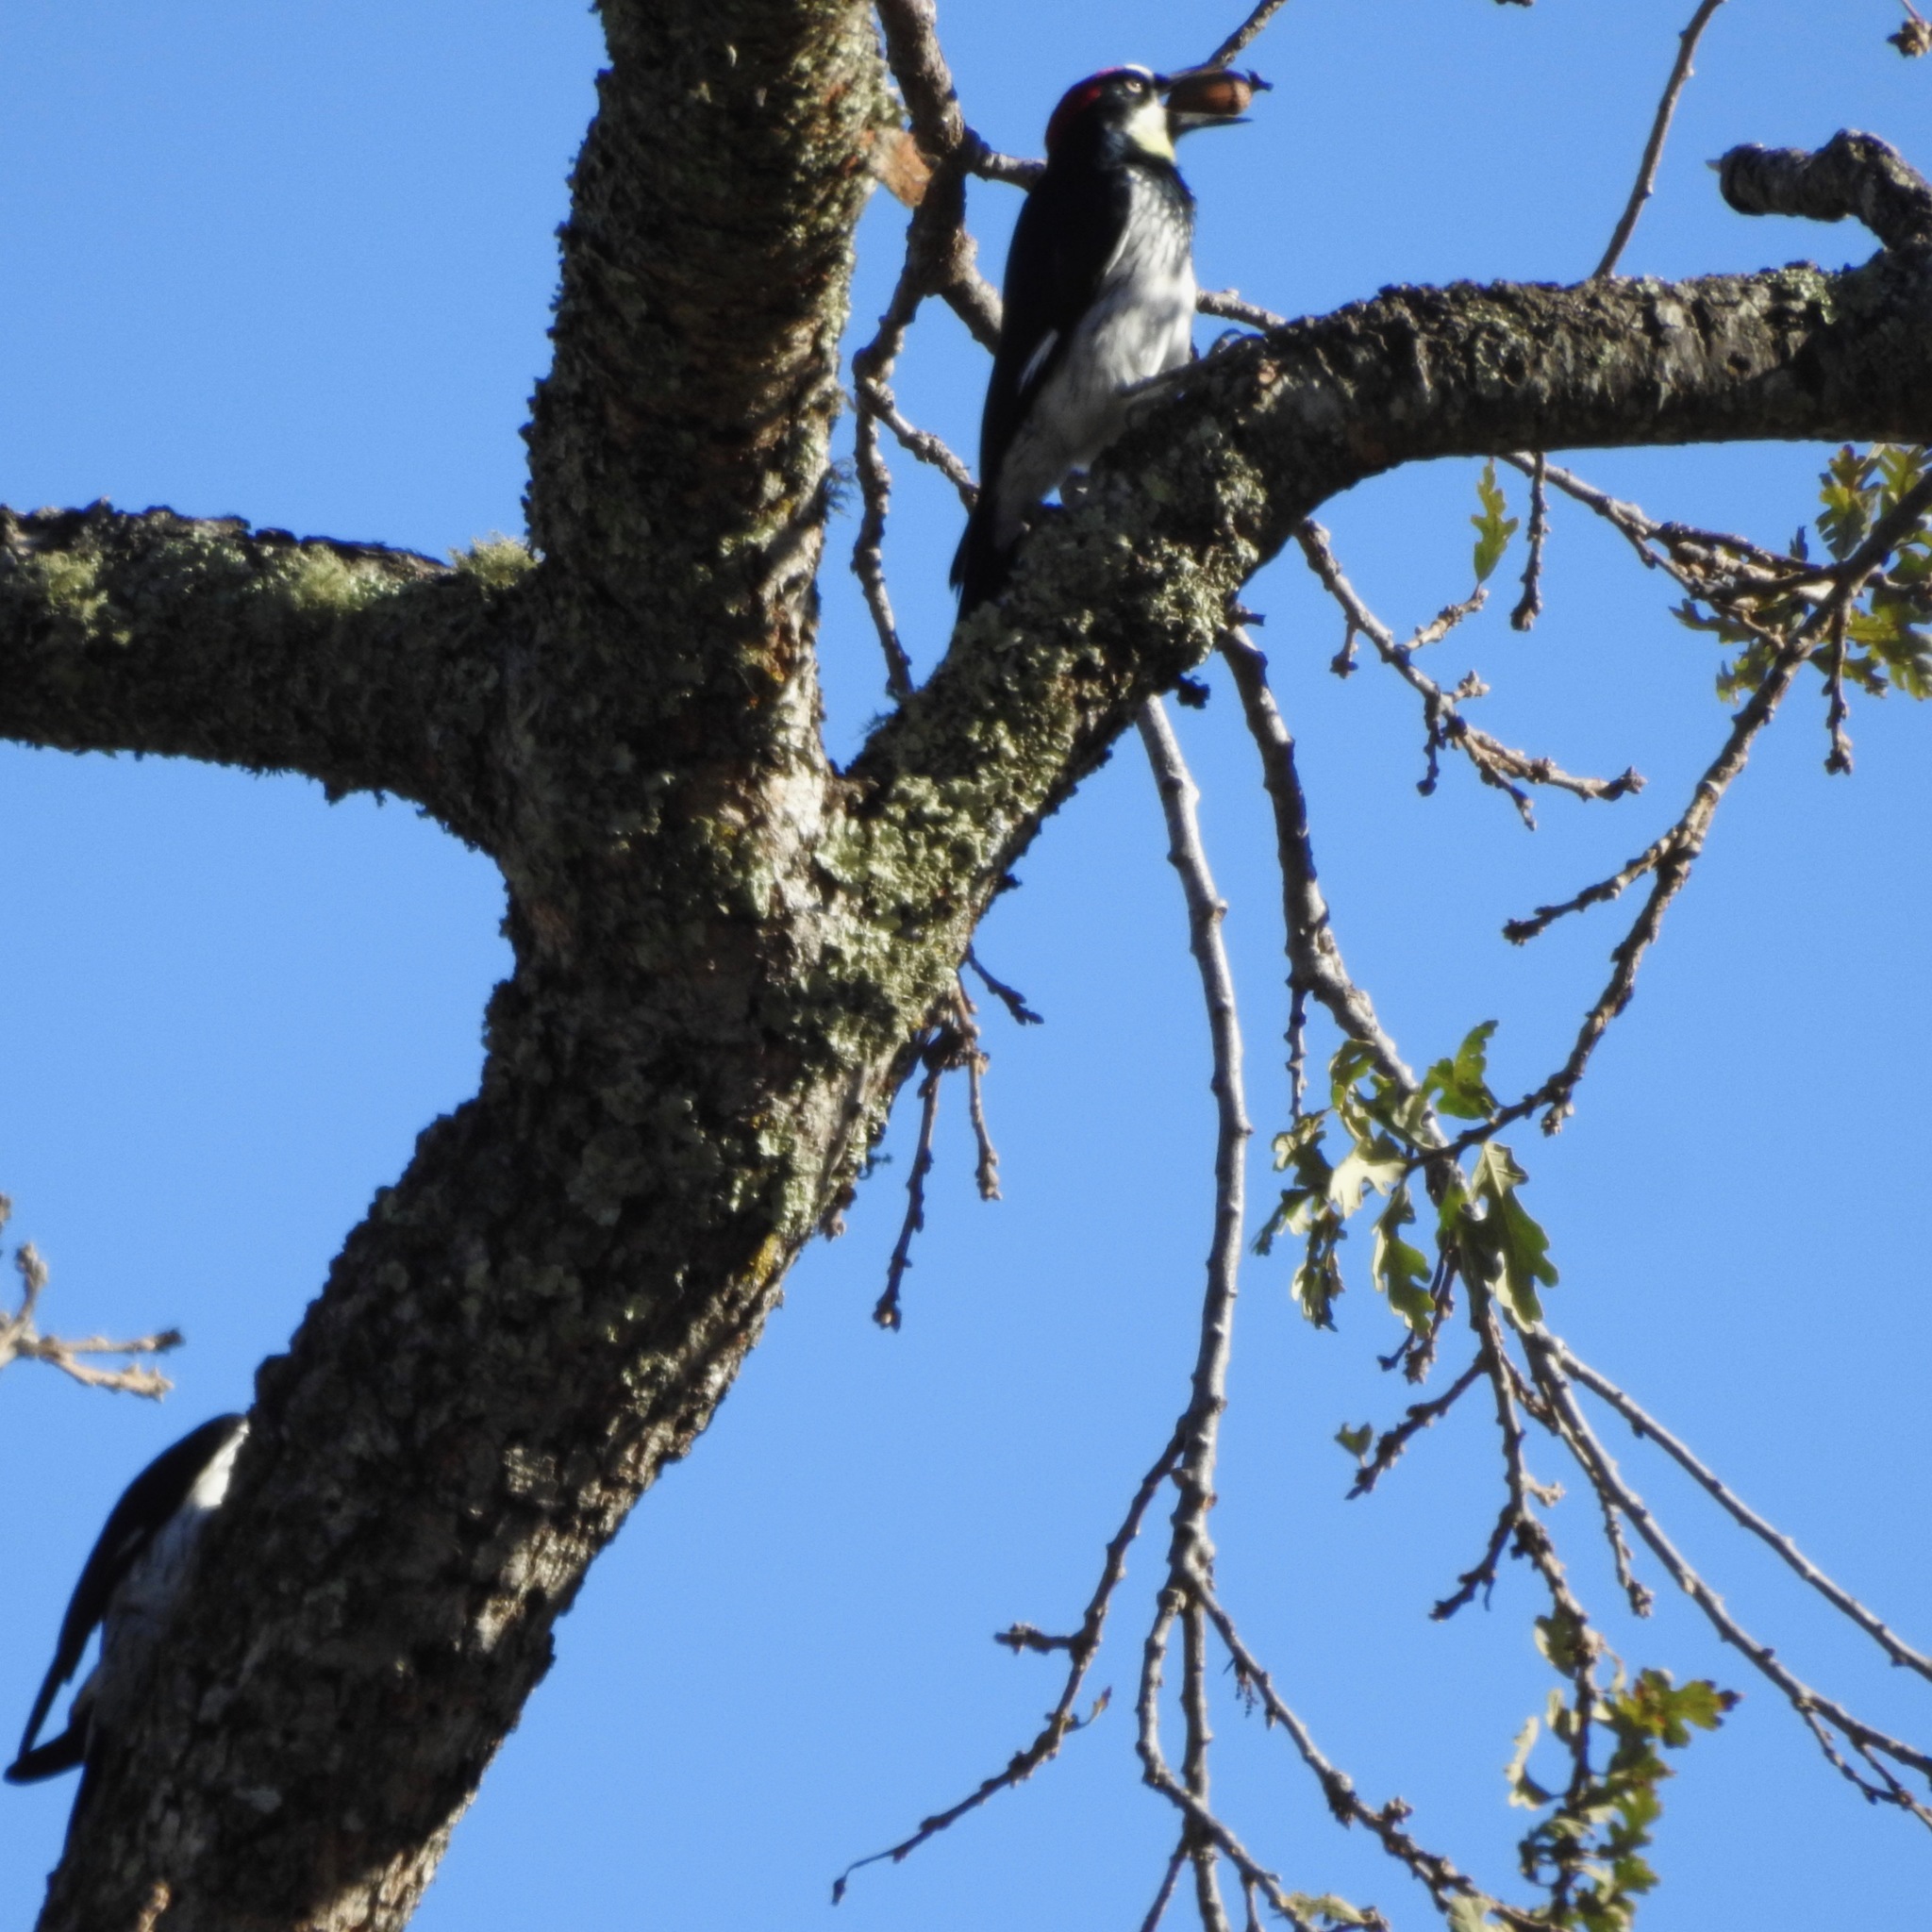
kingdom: Animalia
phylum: Chordata
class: Aves
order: Piciformes
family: Picidae
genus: Melanerpes
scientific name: Melanerpes formicivorus
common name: Acorn woodpecker
